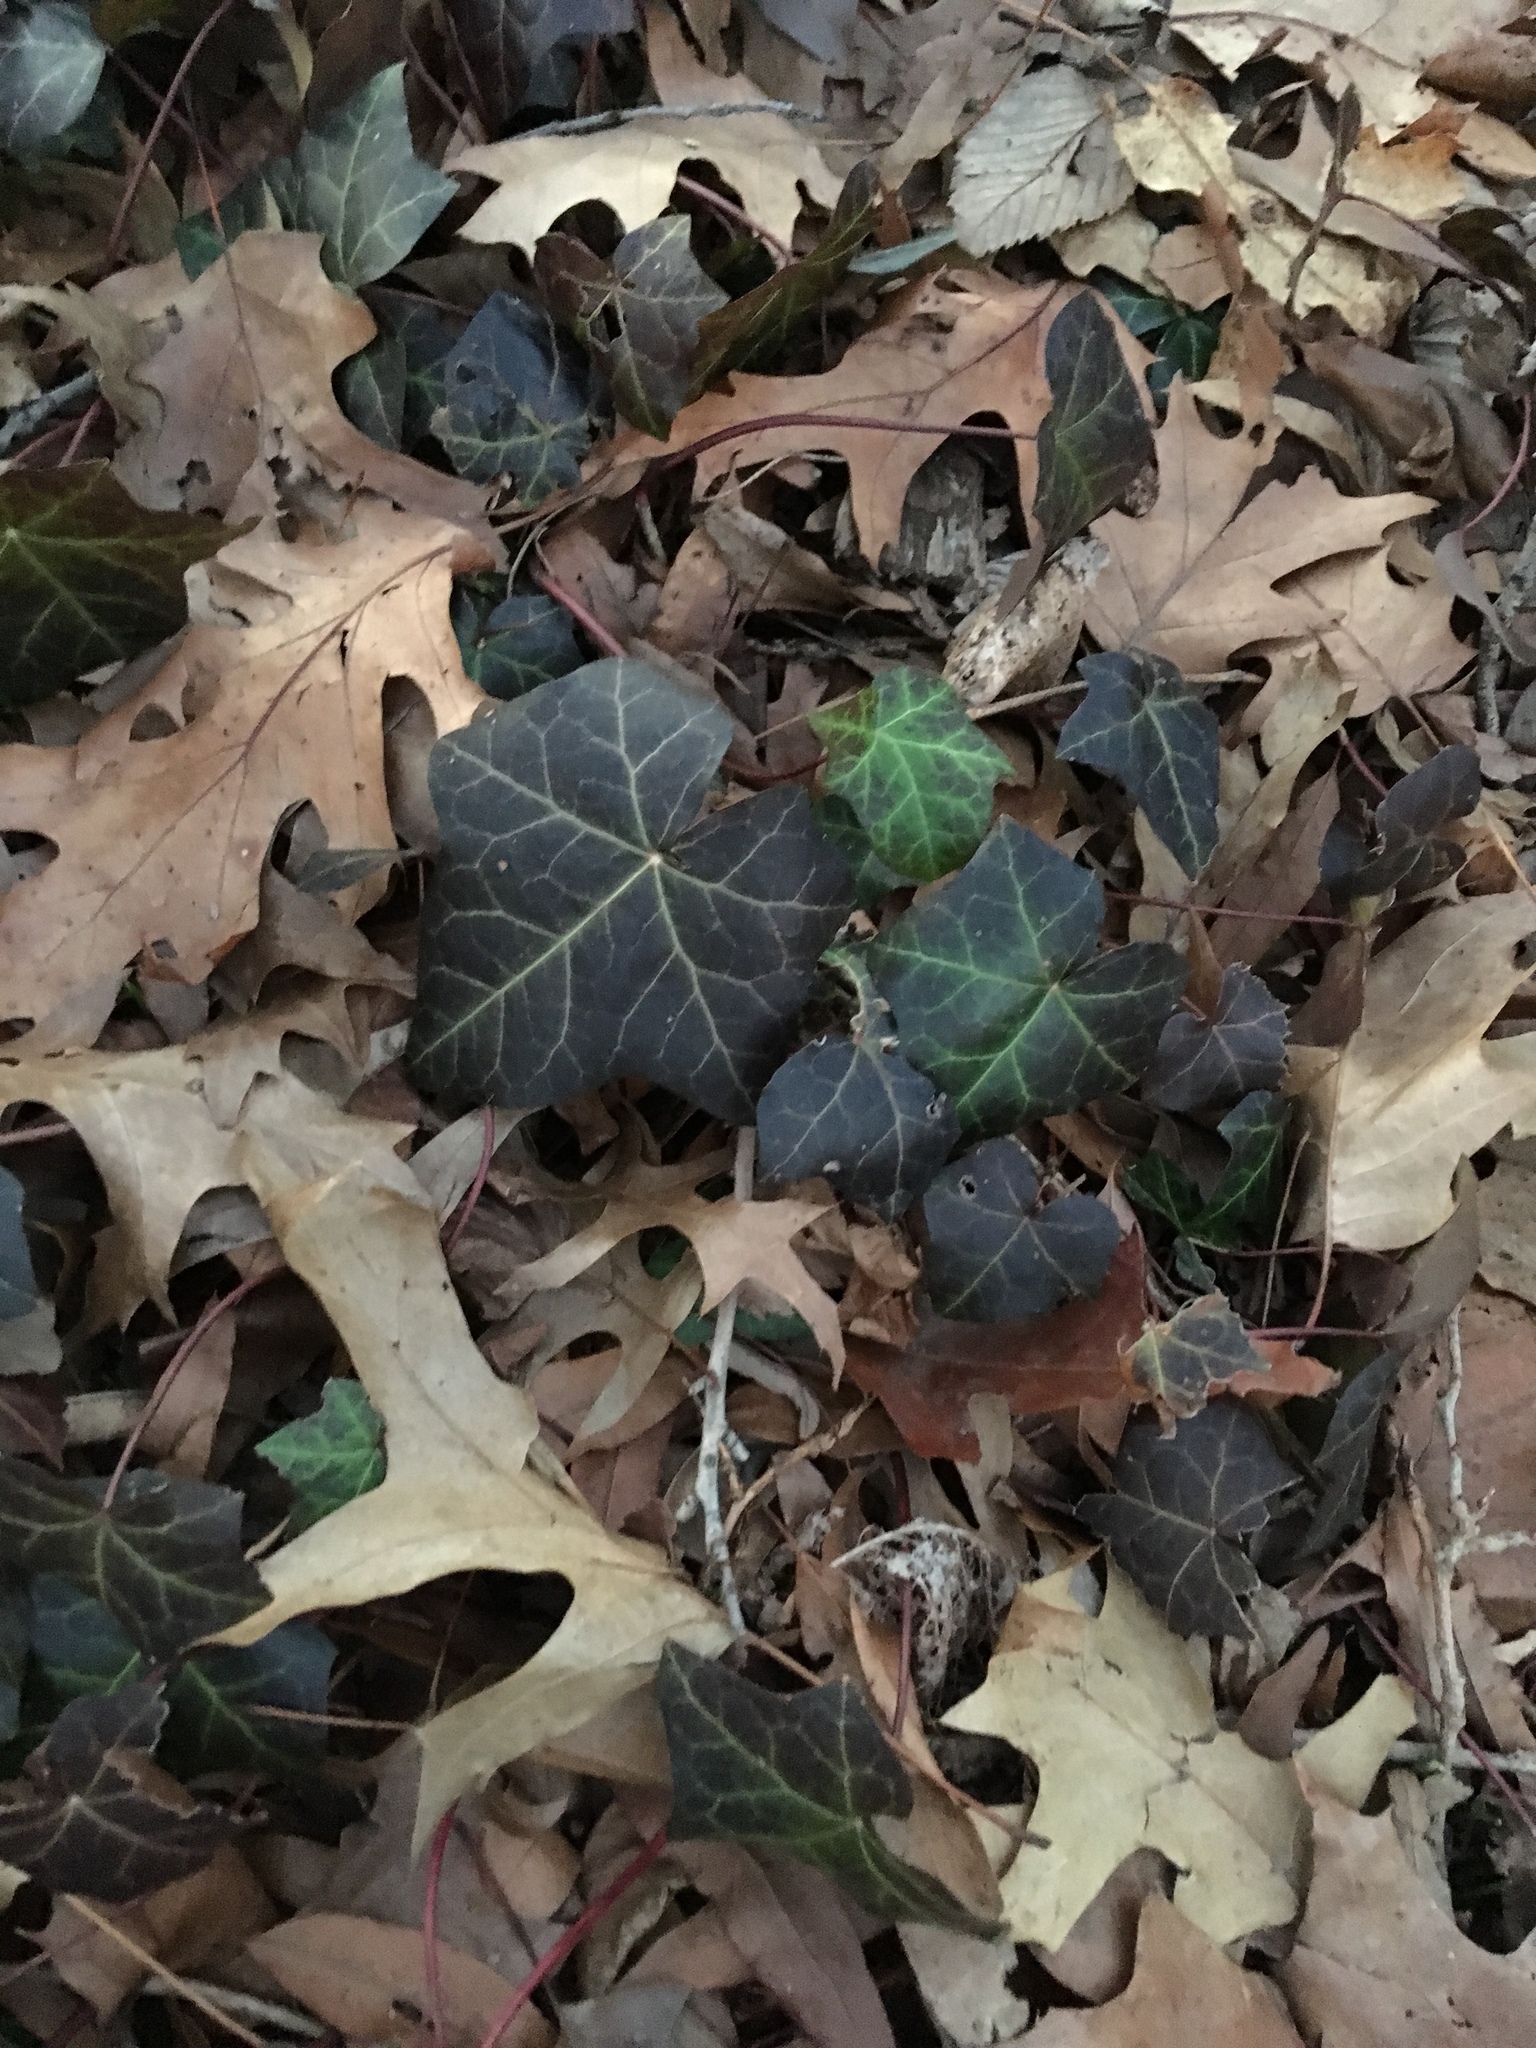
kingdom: Plantae
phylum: Tracheophyta
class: Magnoliopsida
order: Apiales
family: Araliaceae
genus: Hedera
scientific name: Hedera helix
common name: Ivy
